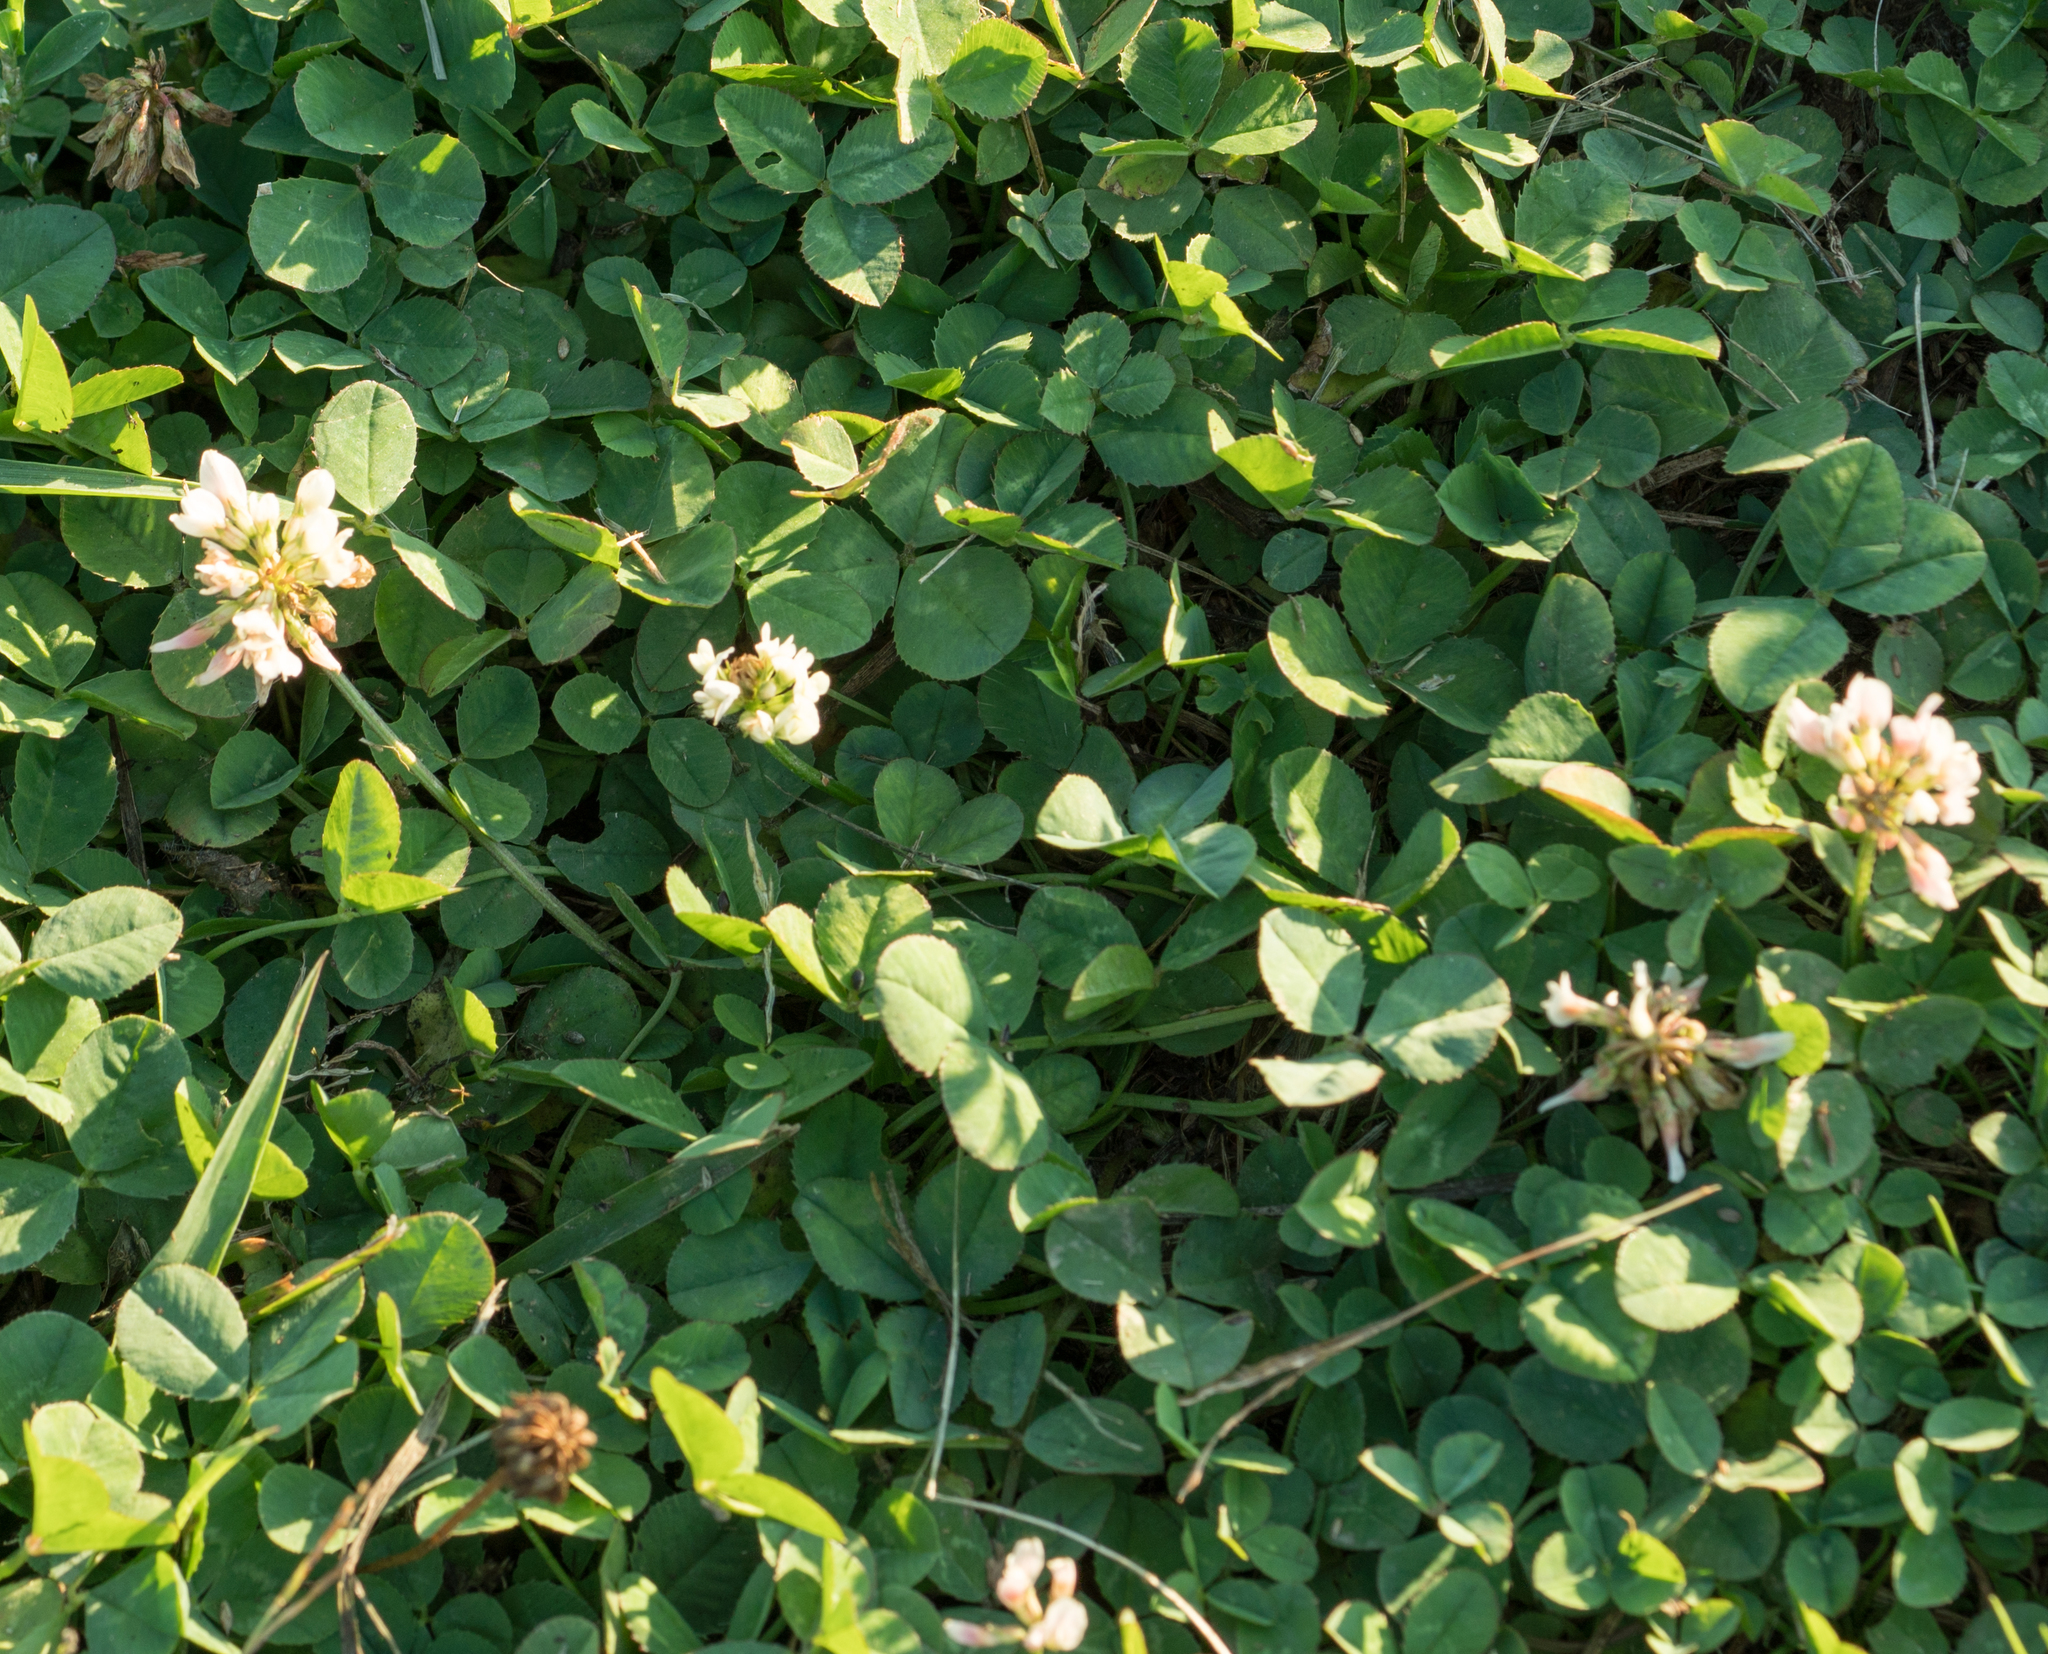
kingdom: Plantae
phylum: Tracheophyta
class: Magnoliopsida
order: Fabales
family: Fabaceae
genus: Trifolium
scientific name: Trifolium repens
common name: White clover
